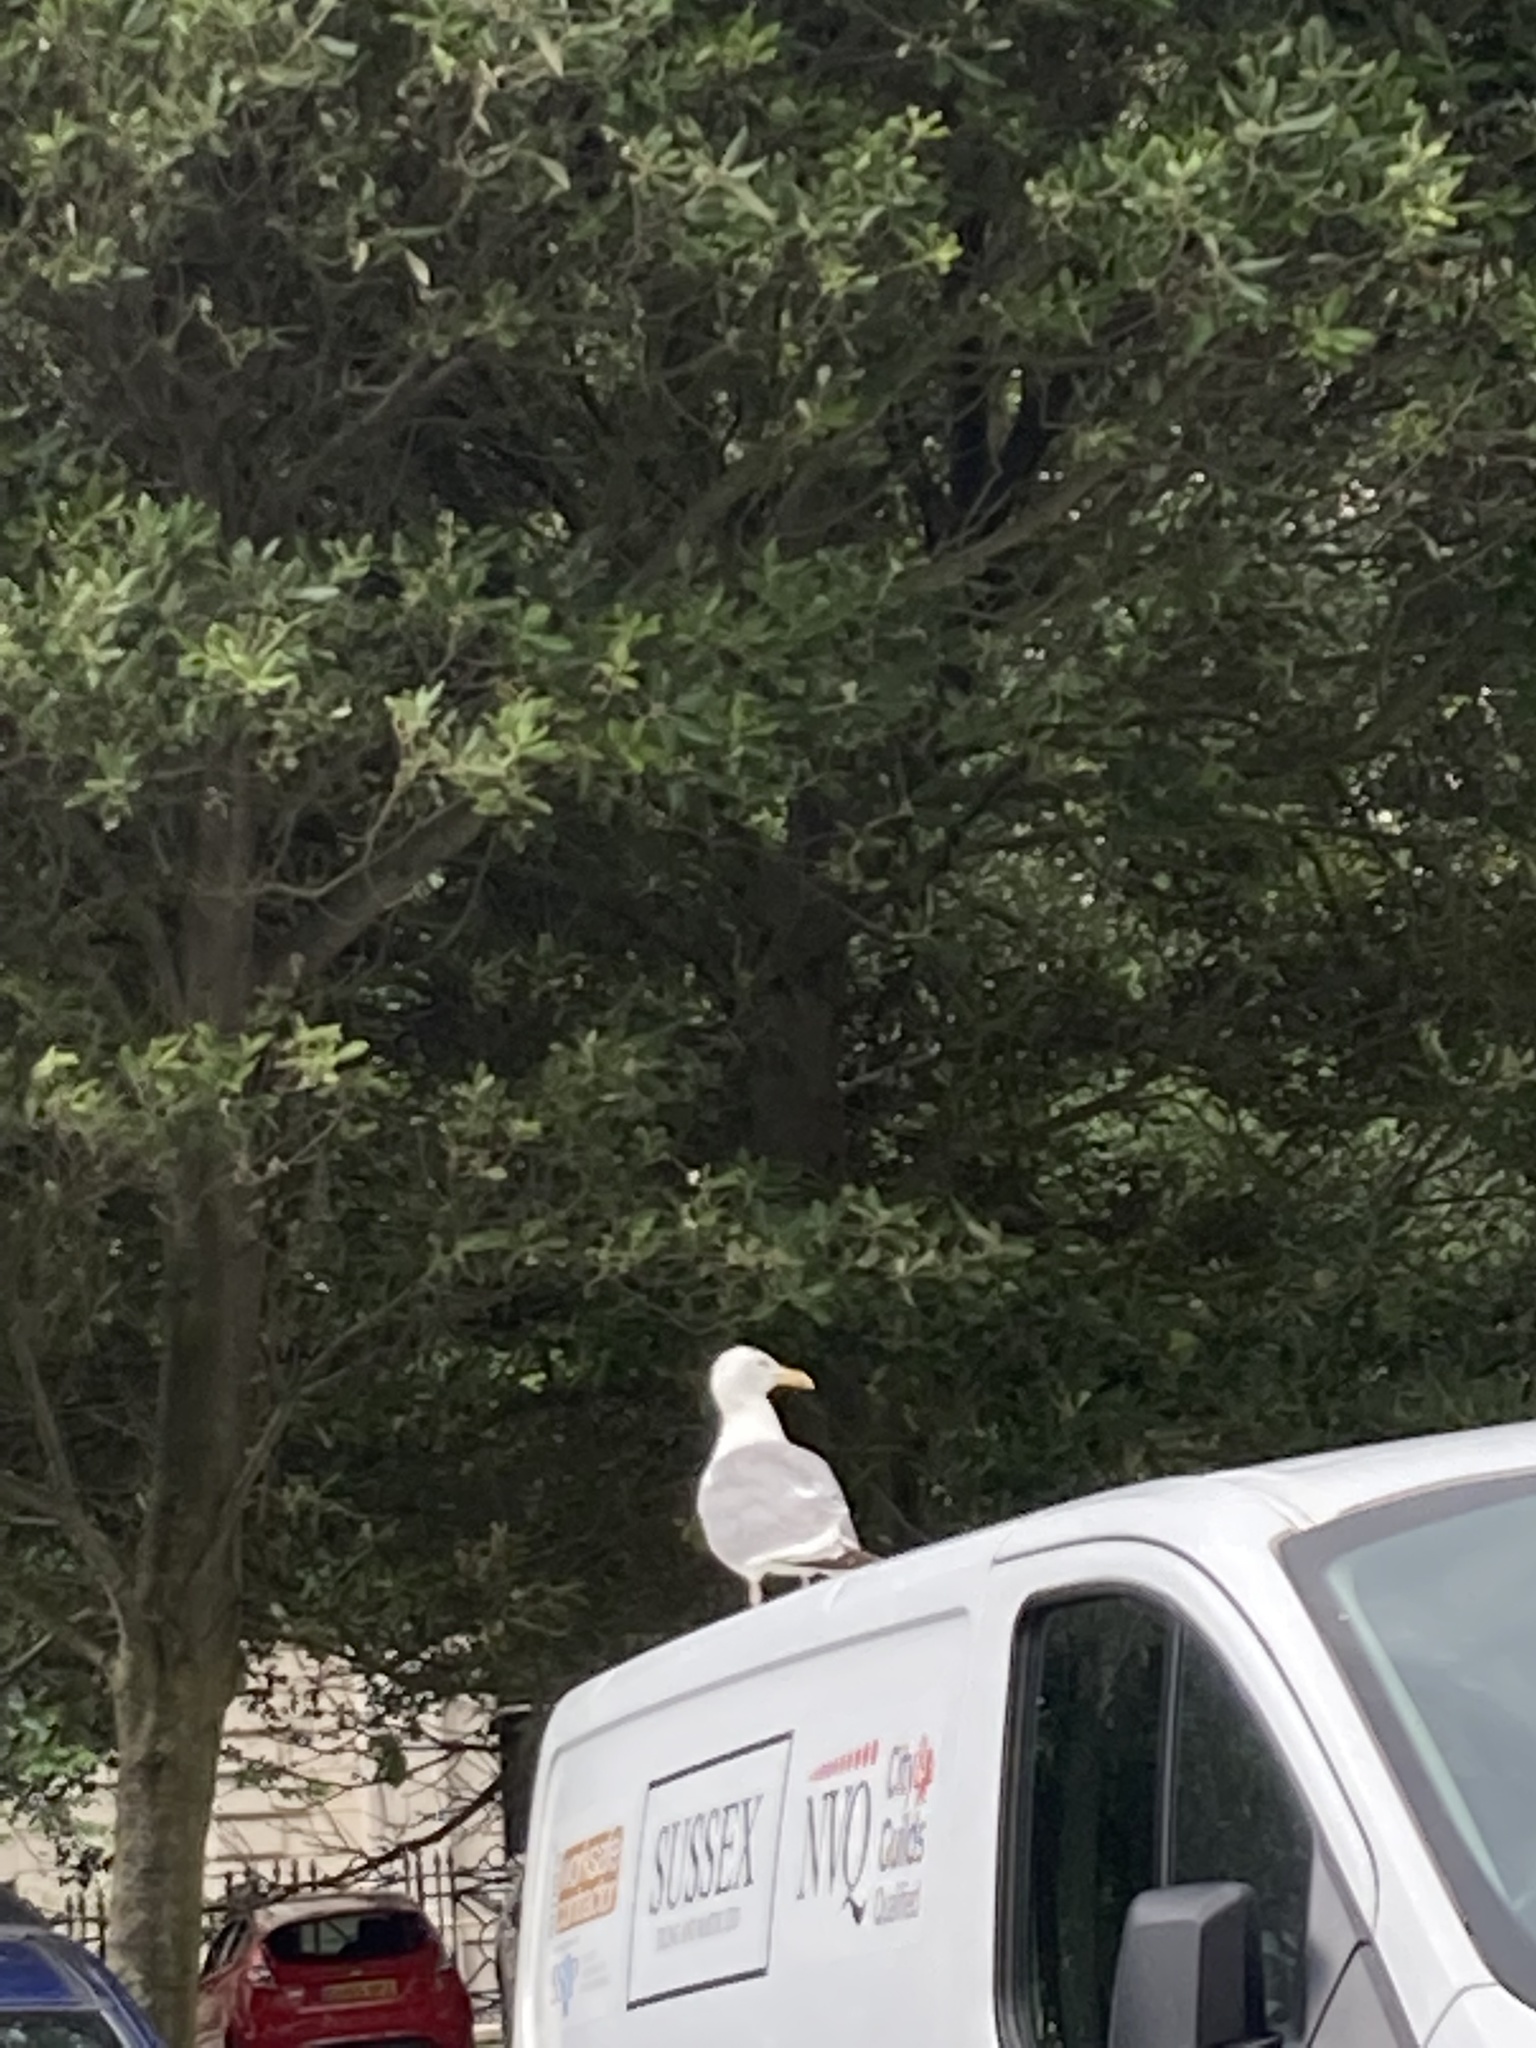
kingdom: Animalia
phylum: Chordata
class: Aves
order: Charadriiformes
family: Laridae
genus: Larus
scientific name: Larus argentatus
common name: Herring gull
